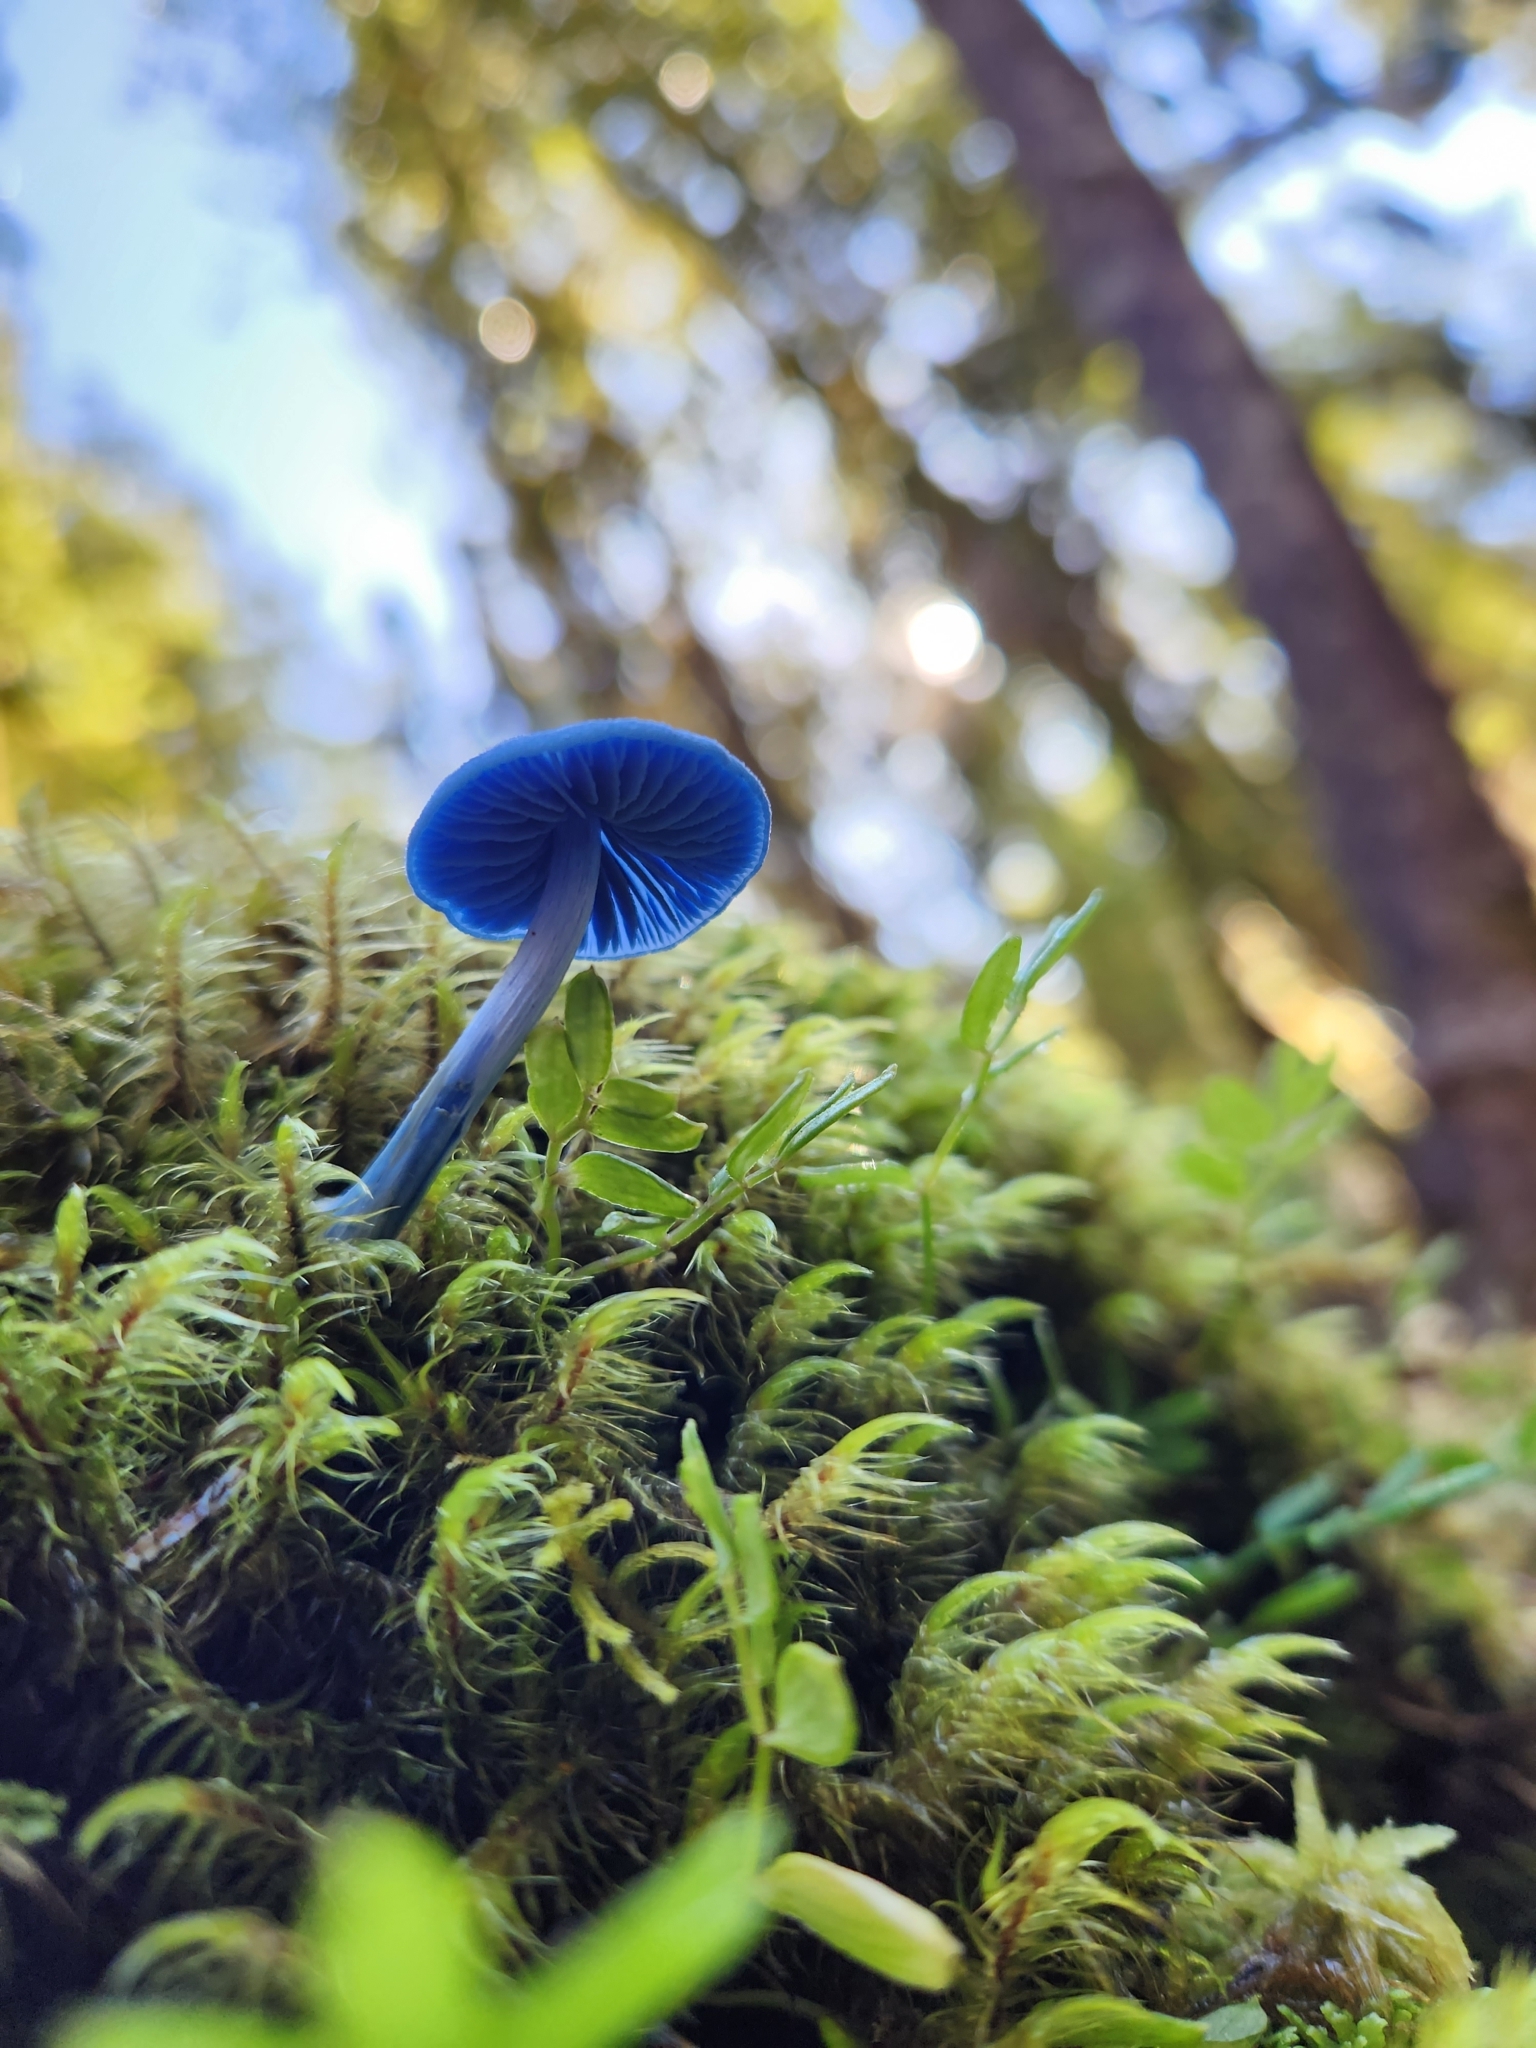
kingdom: Fungi
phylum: Basidiomycota
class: Agaricomycetes
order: Agaricales
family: Entolomataceae
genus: Entoloma
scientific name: Entoloma hochstetteri
